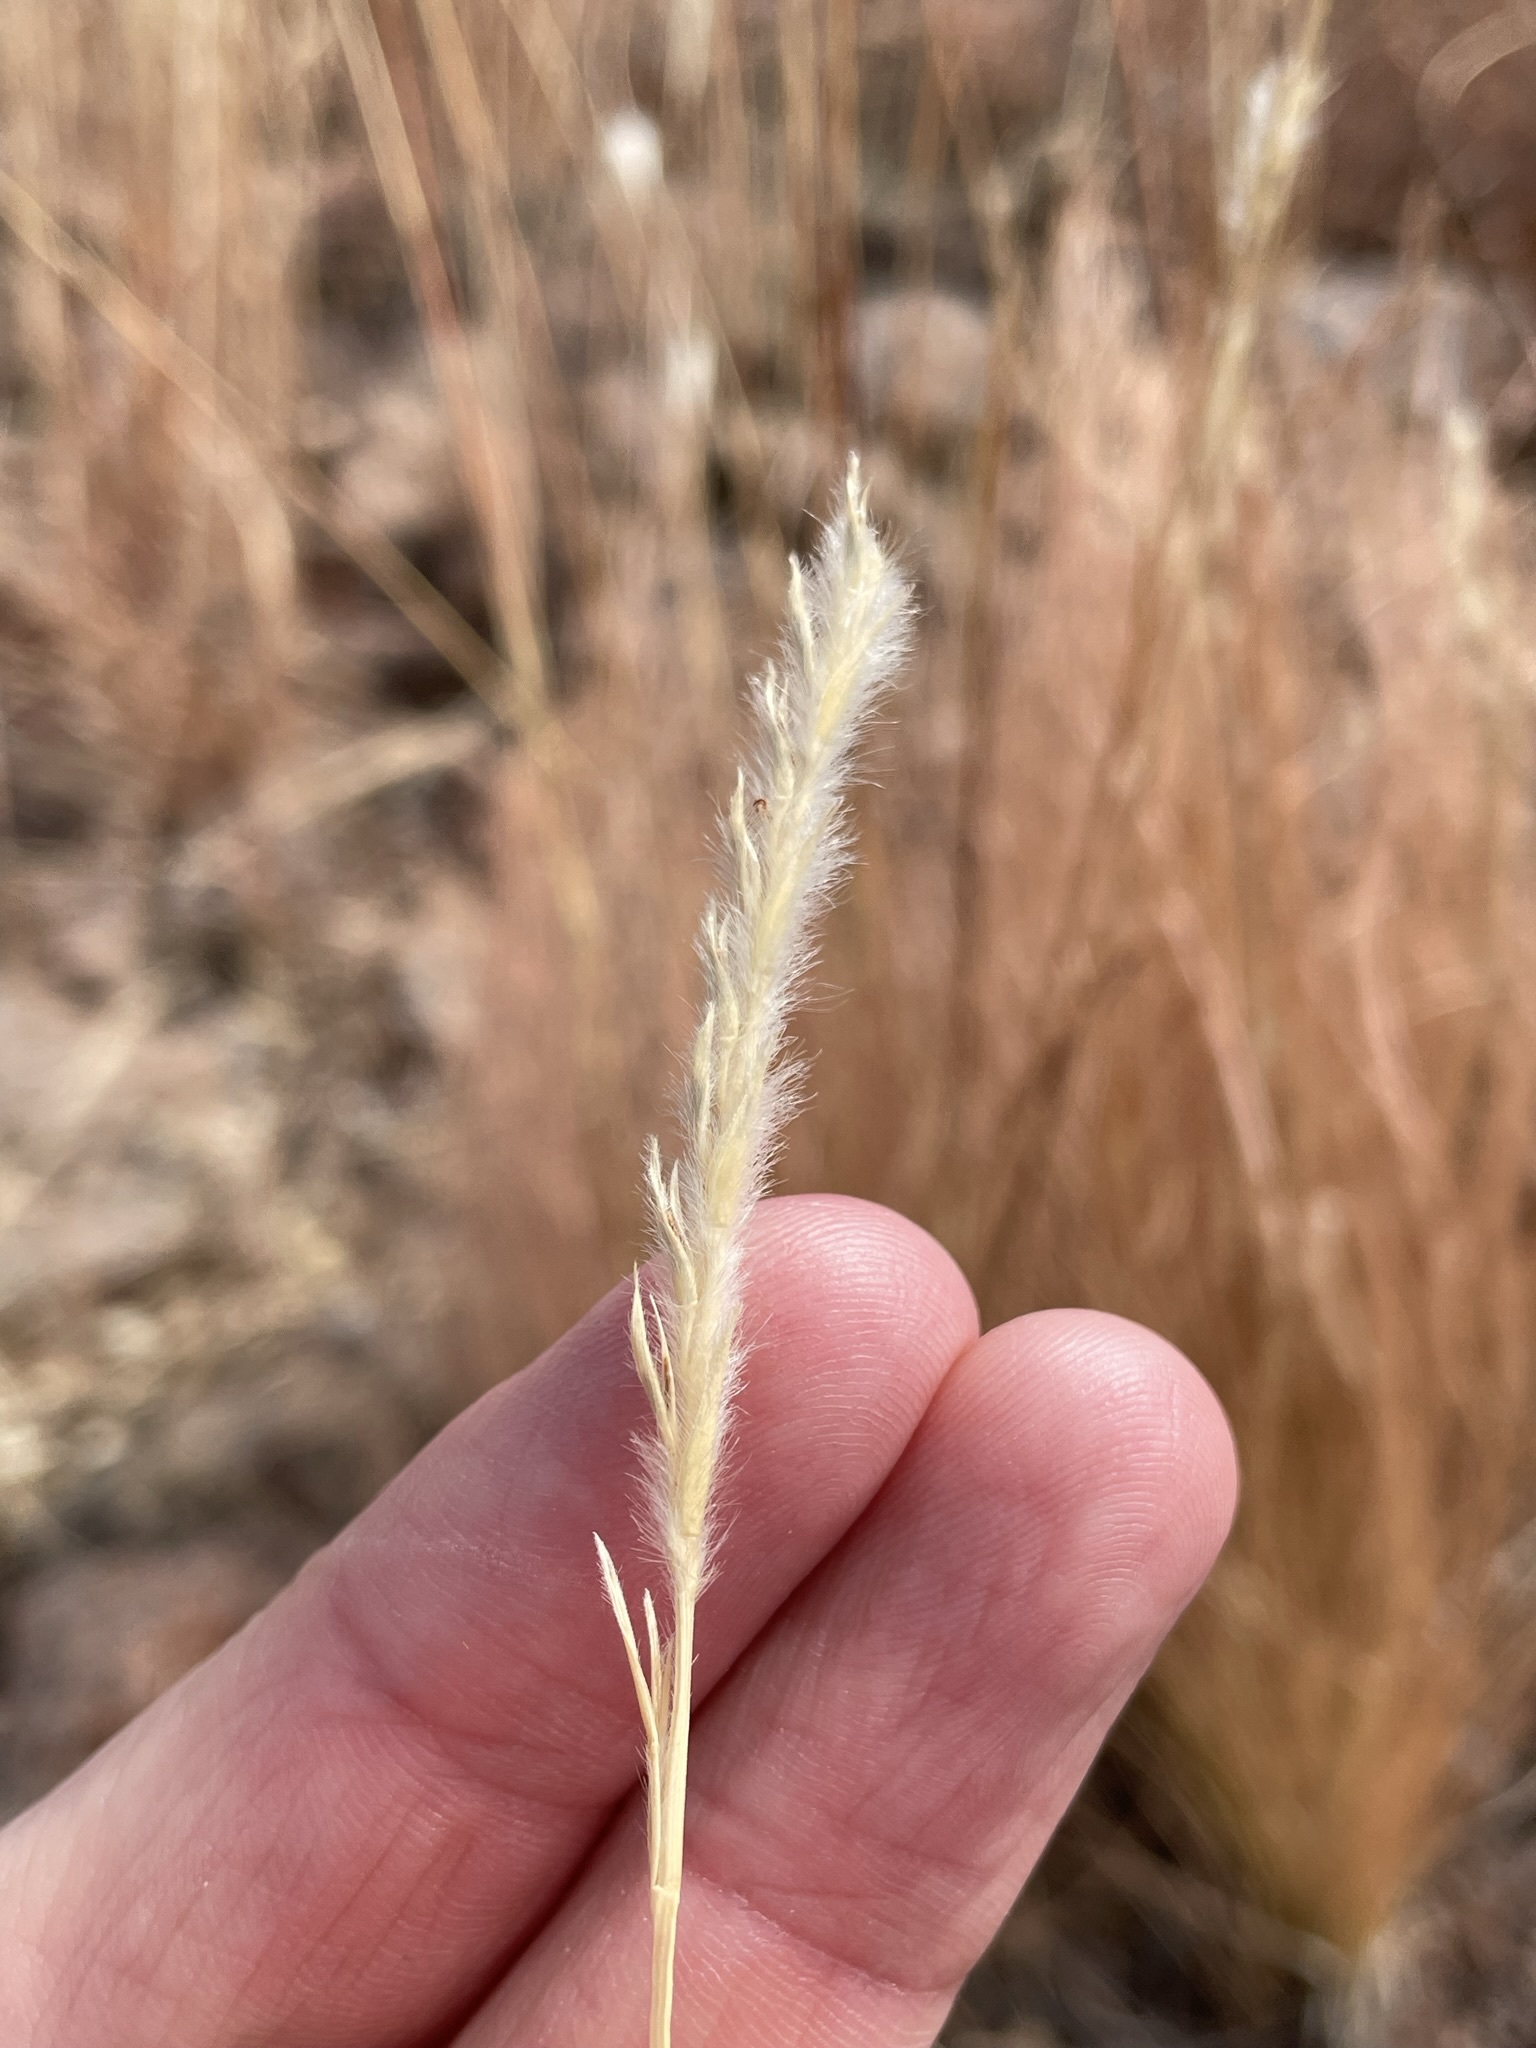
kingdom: Plantae
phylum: Tracheophyta
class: Liliopsida
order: Poales
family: Poaceae
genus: Elionurus
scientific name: Elionurus barbiculmis
